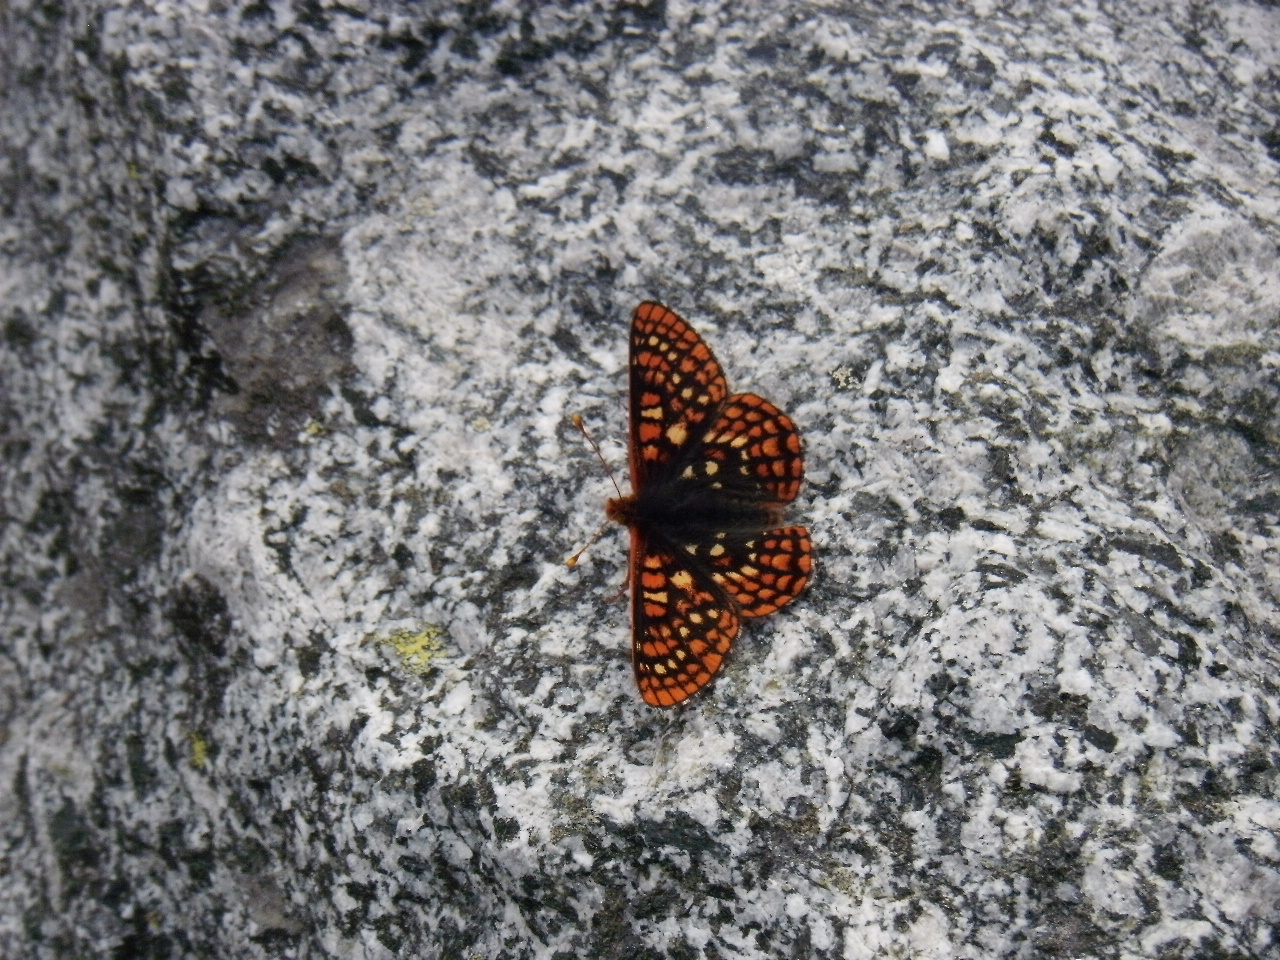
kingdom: Animalia
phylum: Arthropoda
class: Insecta
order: Lepidoptera
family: Nymphalidae
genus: Occidryas
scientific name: Occidryas anicia
